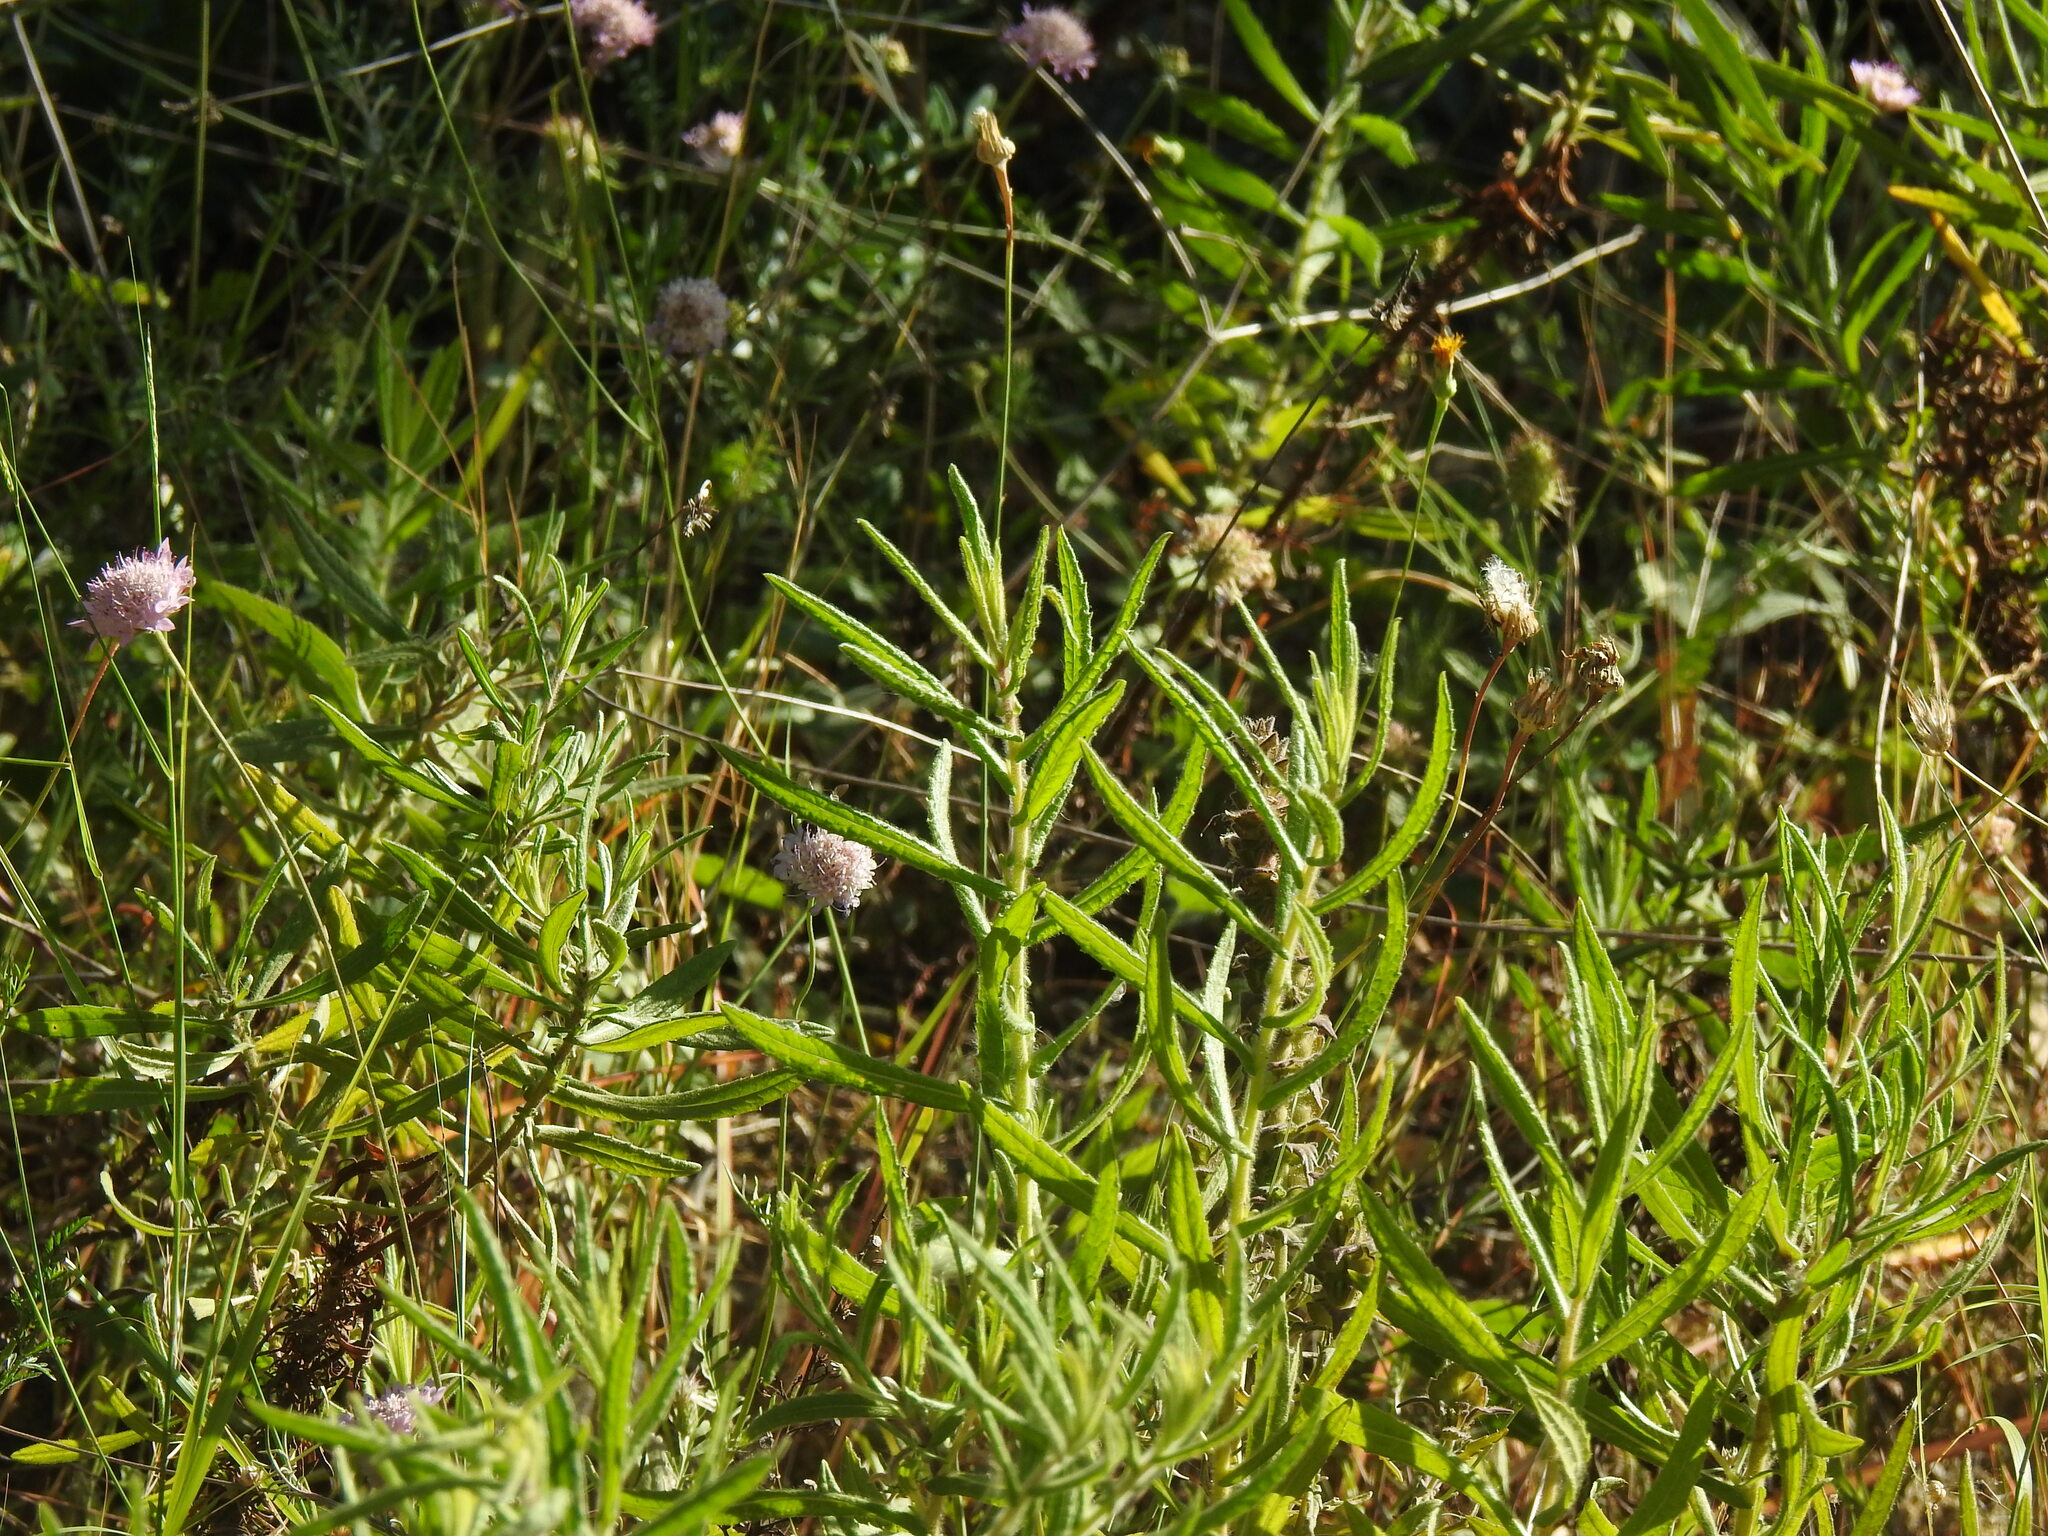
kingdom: Plantae
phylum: Tracheophyta
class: Magnoliopsida
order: Asterales
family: Asteraceae
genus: Dittrichia
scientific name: Dittrichia viscosa
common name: Woody fleabane
